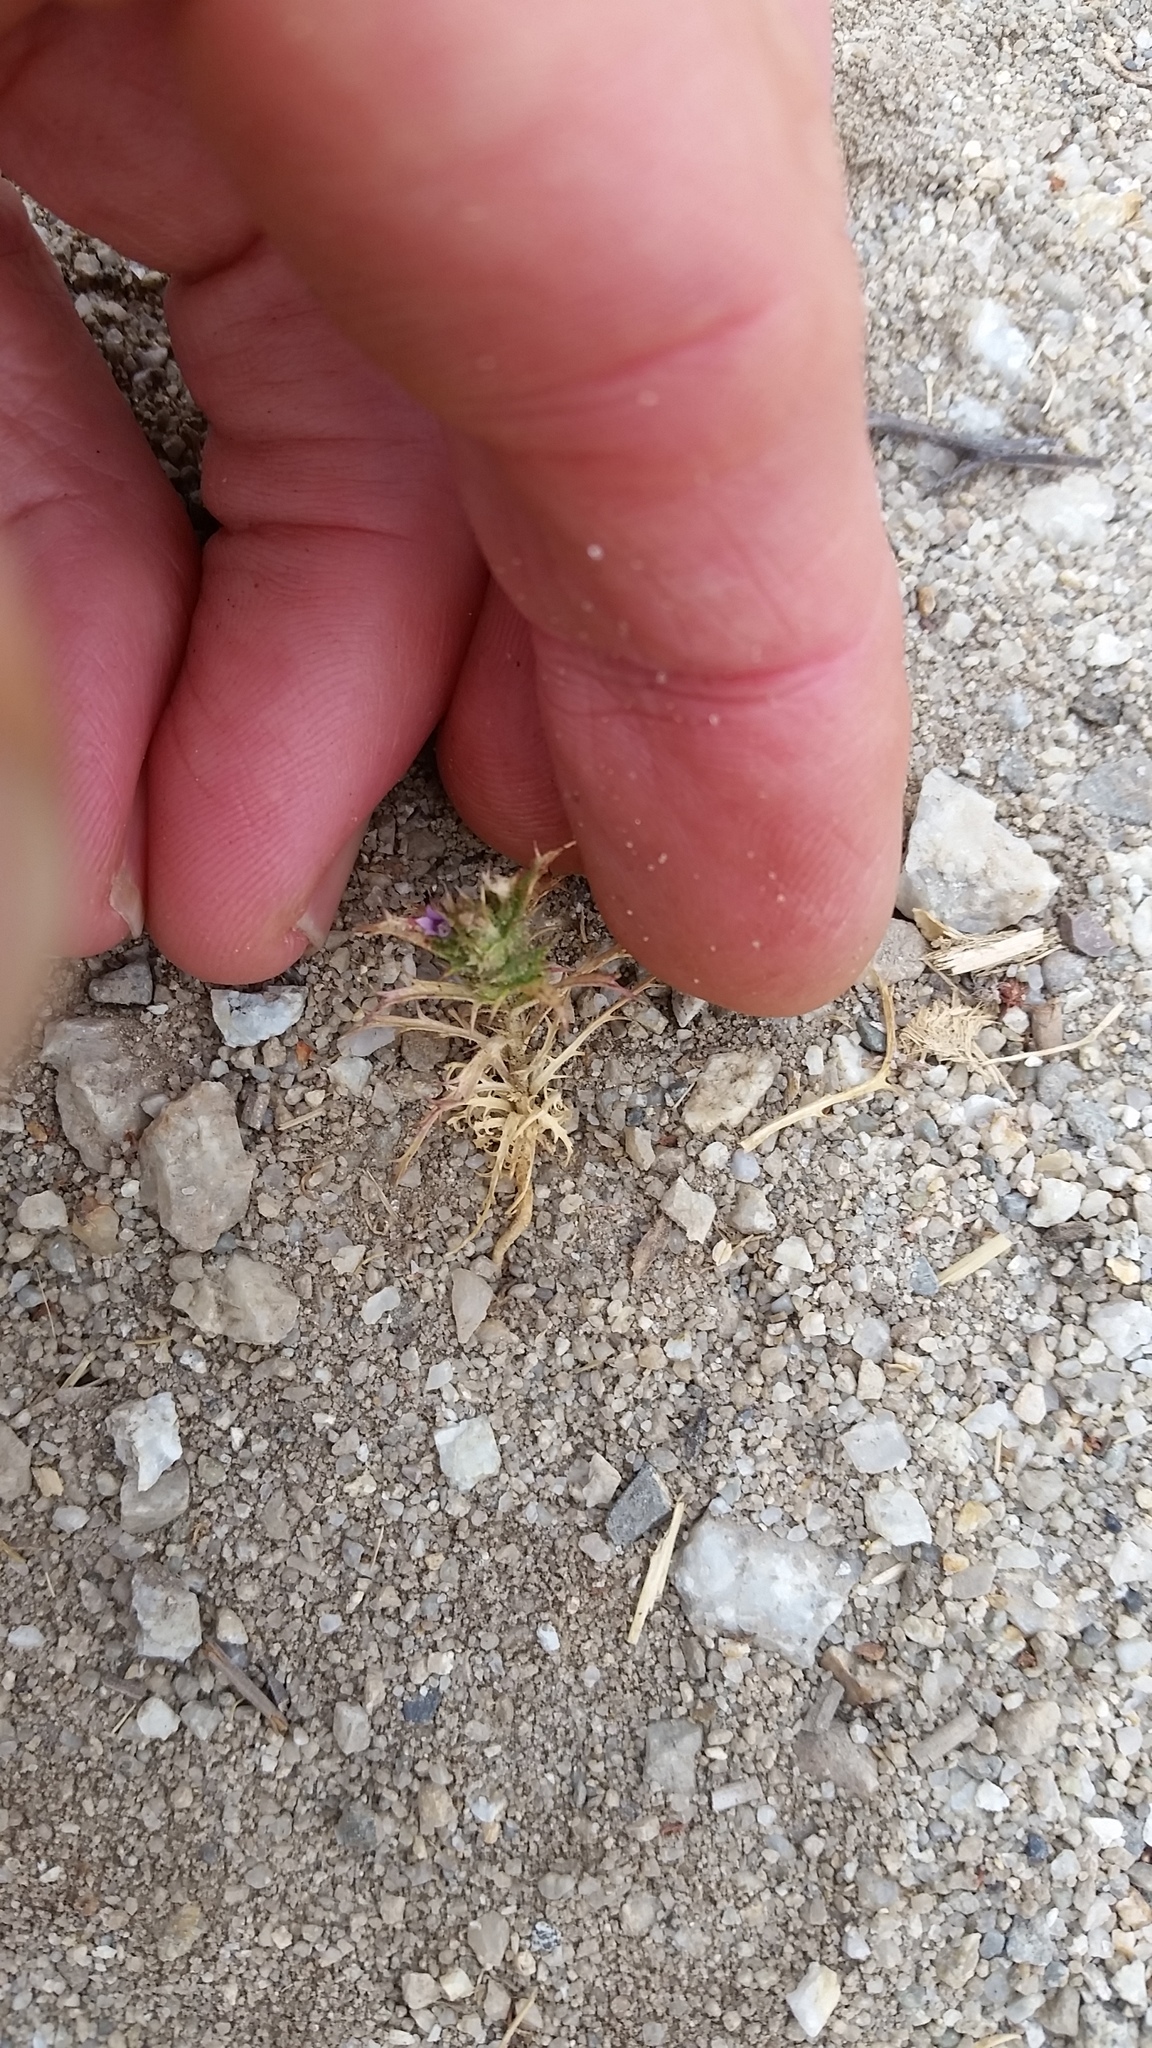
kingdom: Plantae
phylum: Tracheophyta
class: Magnoliopsida
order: Ericales
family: Polemoniaceae
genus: Navarretia
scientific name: Navarretia atractyloides
